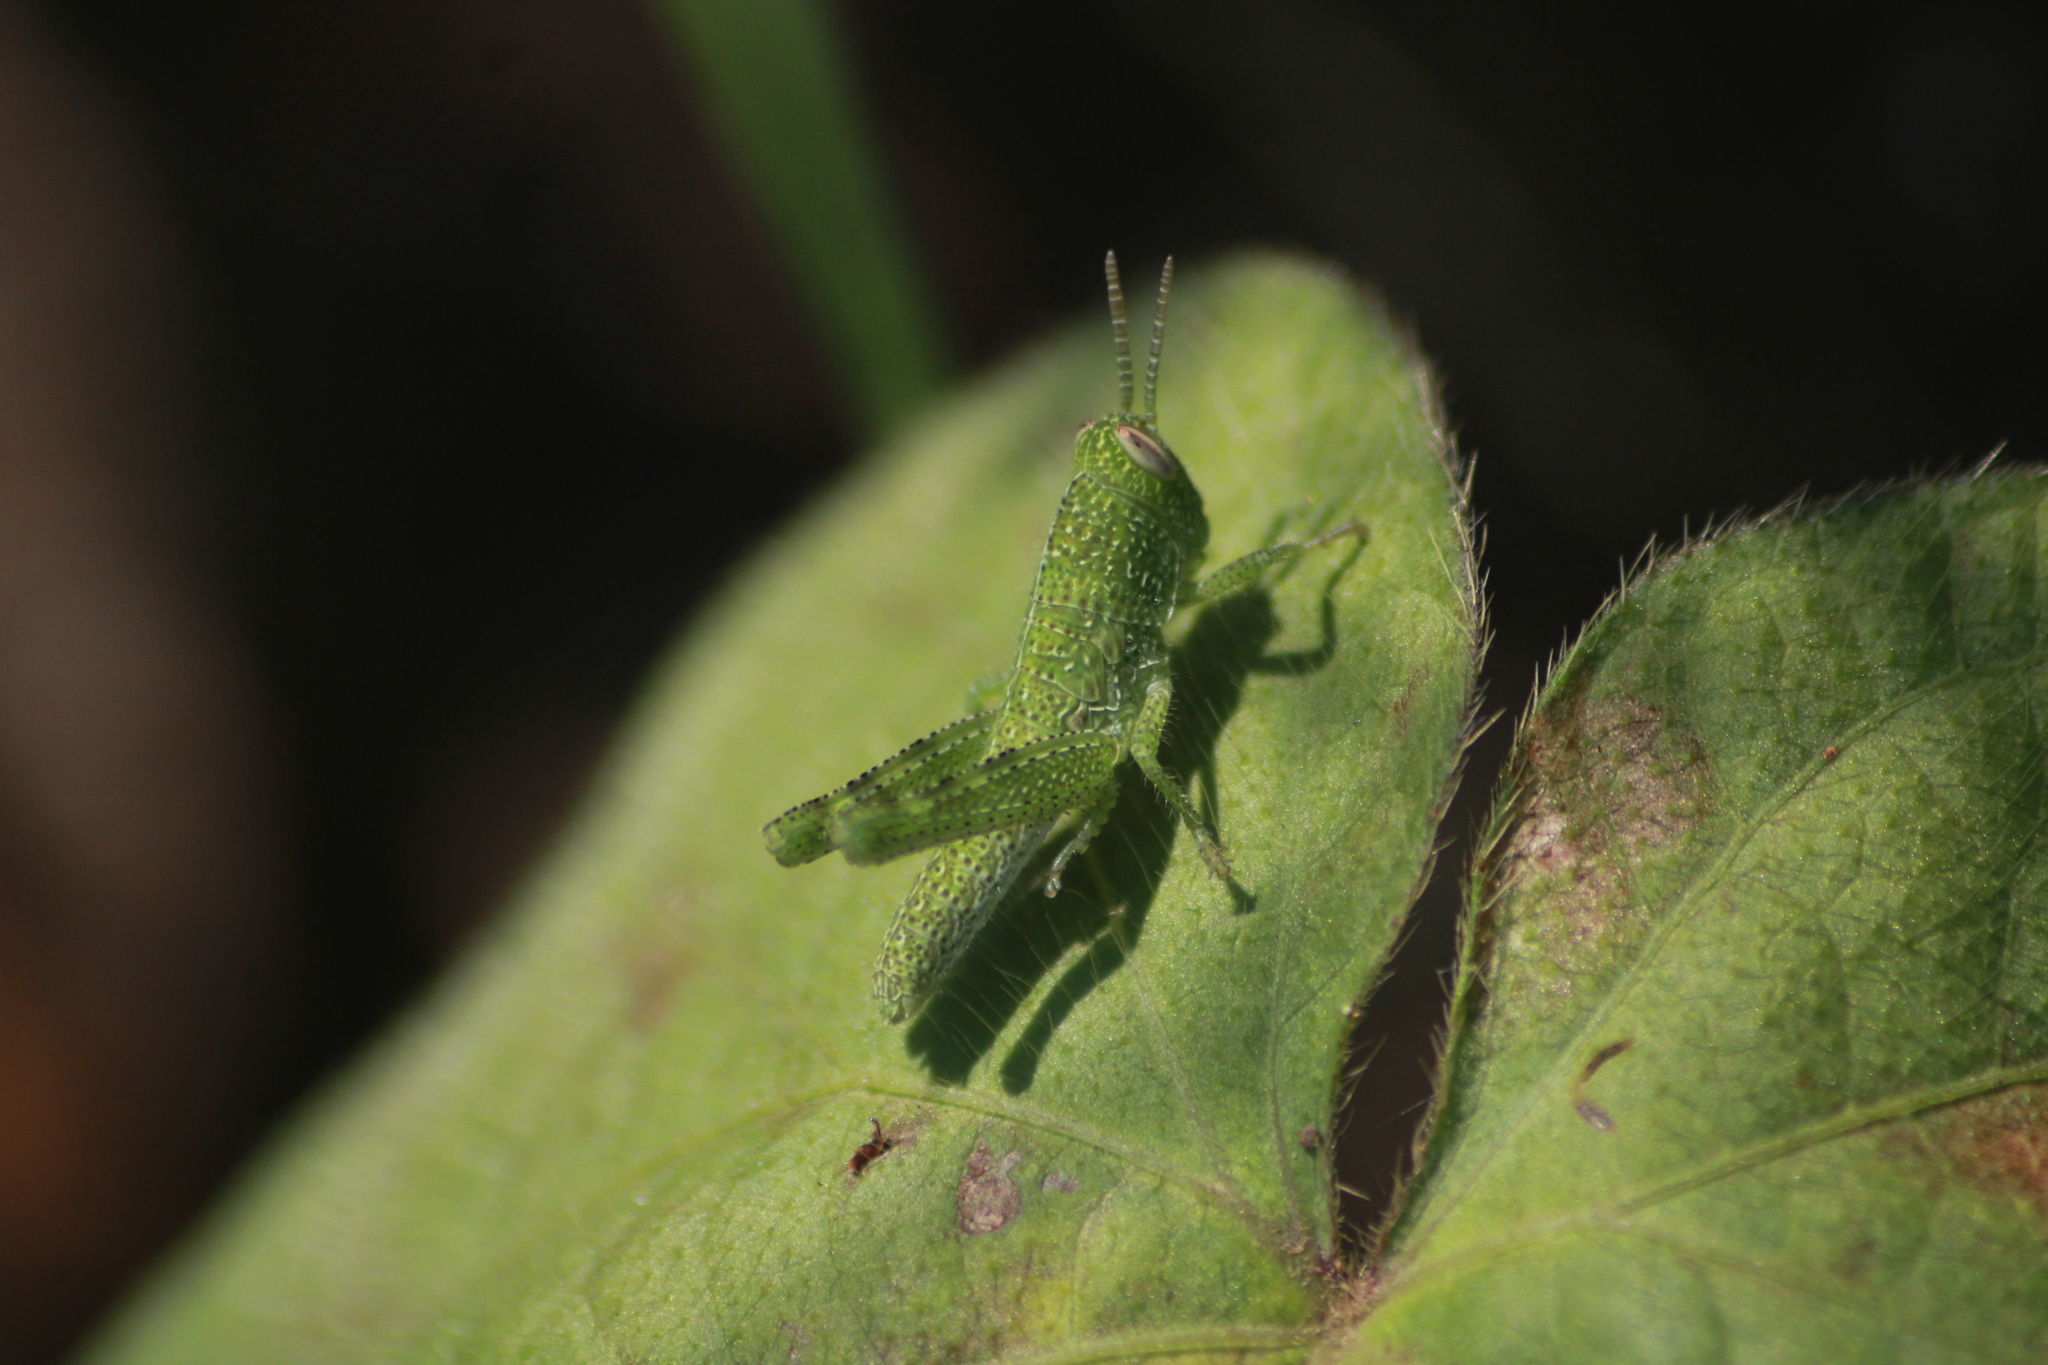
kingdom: Animalia
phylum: Arthropoda
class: Insecta
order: Orthoptera
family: Acrididae
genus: Schistocerca
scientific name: Schistocerca nitens
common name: Vagrant grasshopper
